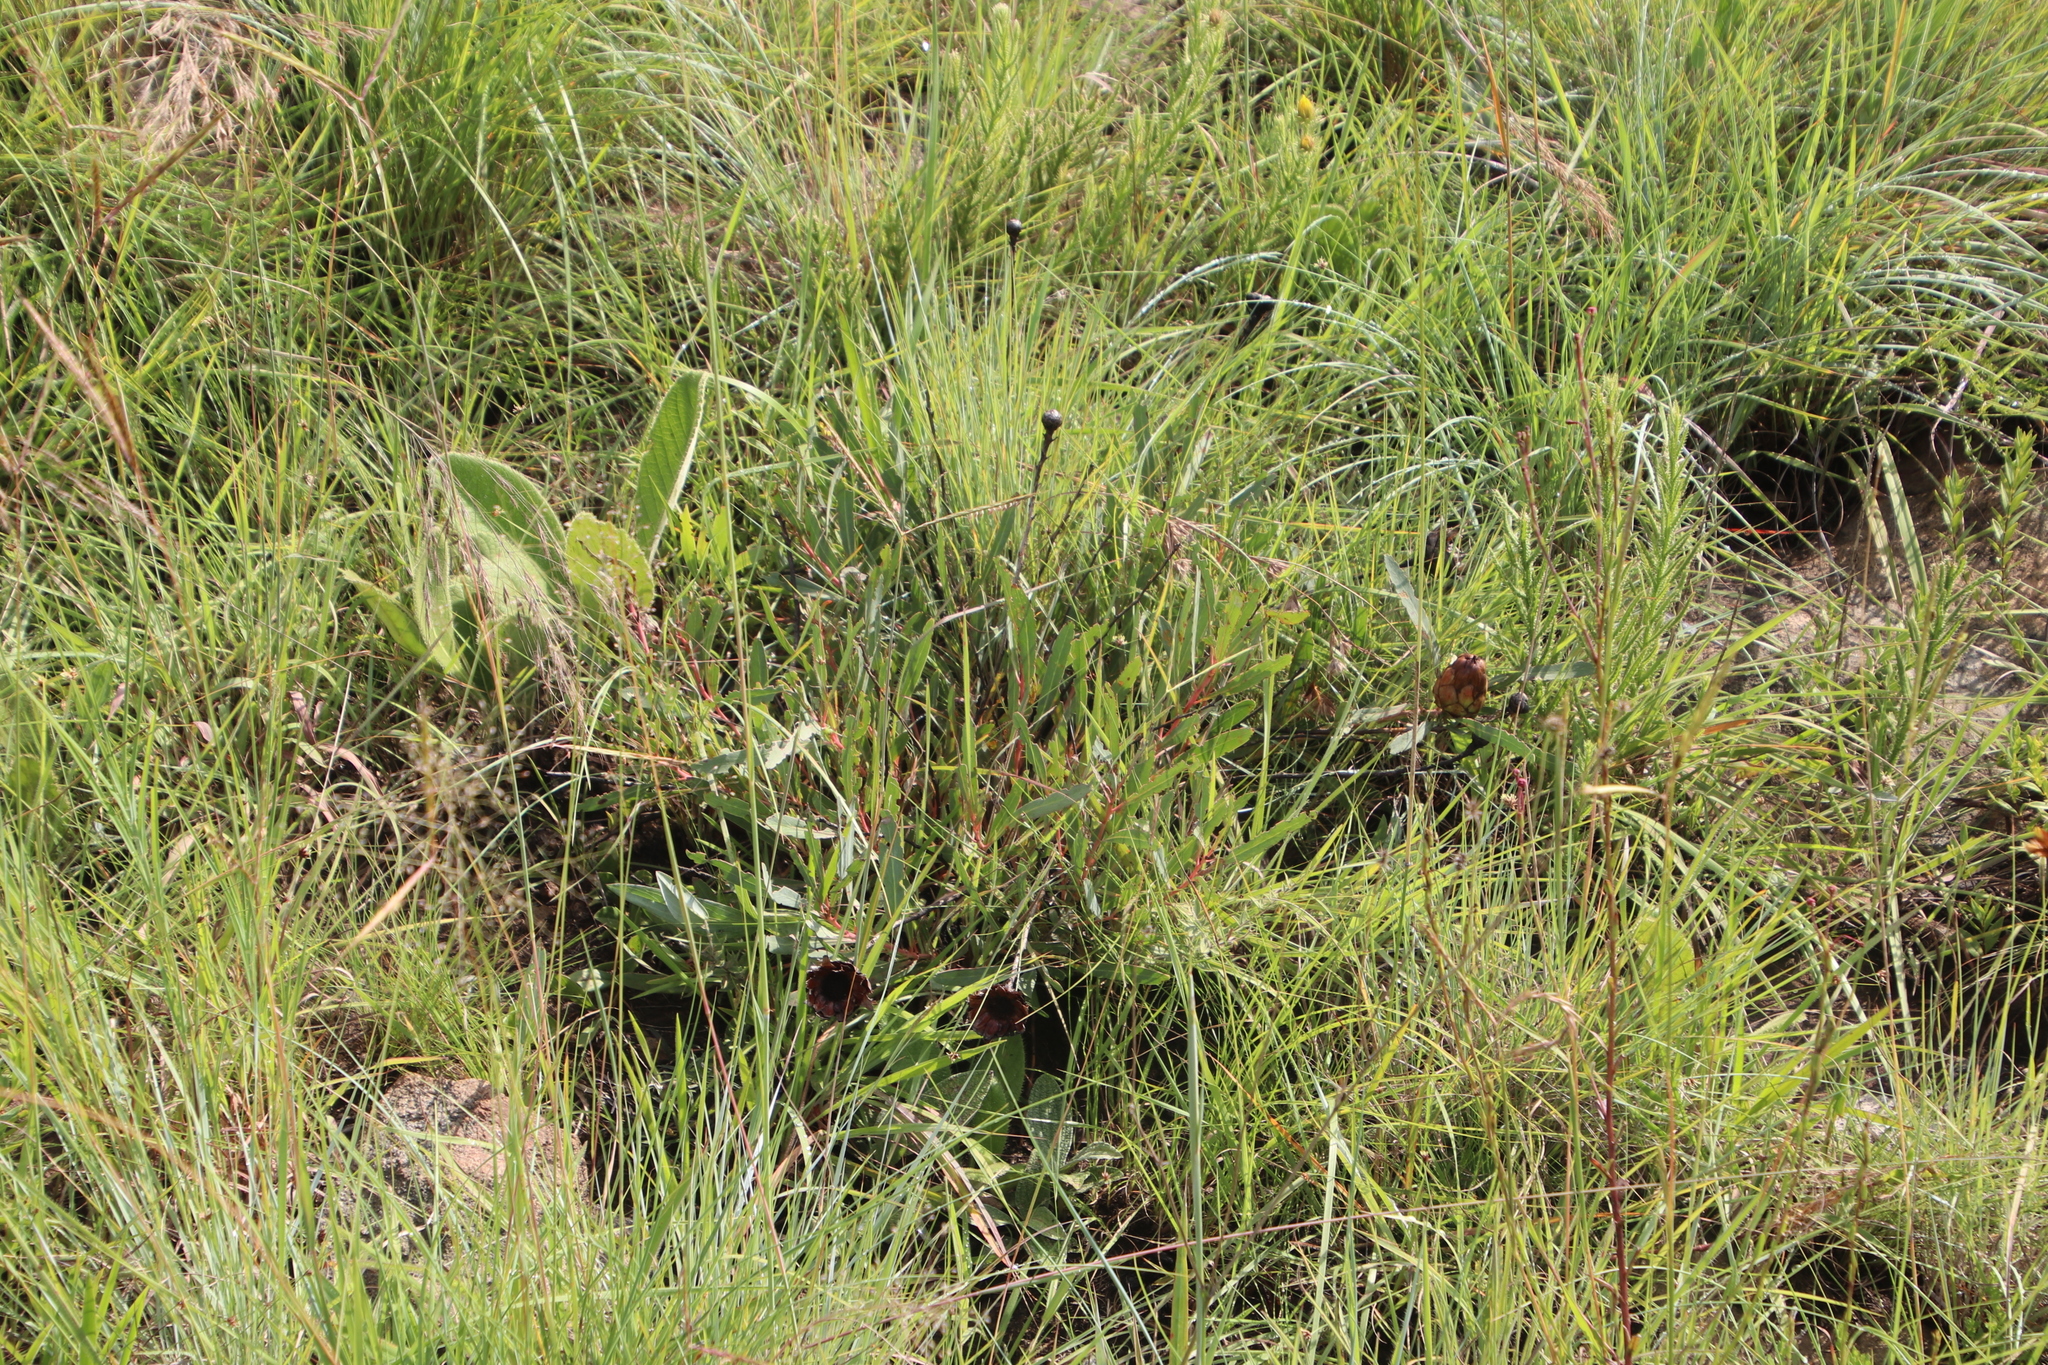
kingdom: Plantae
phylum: Tracheophyta
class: Magnoliopsida
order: Proteales
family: Proteaceae
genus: Protea
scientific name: Protea simplex
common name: Dwarf grassveld sugarbush
